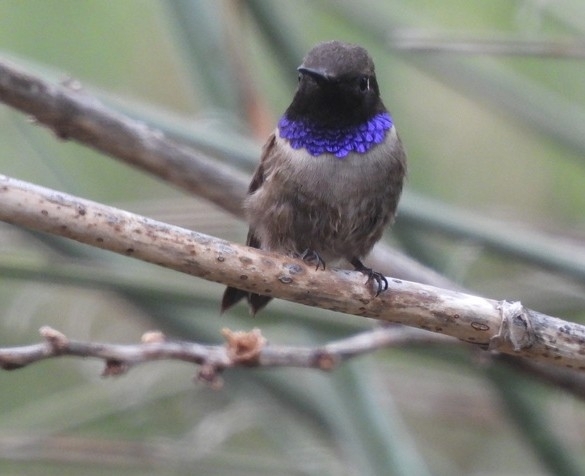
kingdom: Animalia
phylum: Chordata
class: Aves
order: Apodiformes
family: Trochilidae
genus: Archilochus
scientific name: Archilochus alexandri
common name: Black-chinned hummingbird
